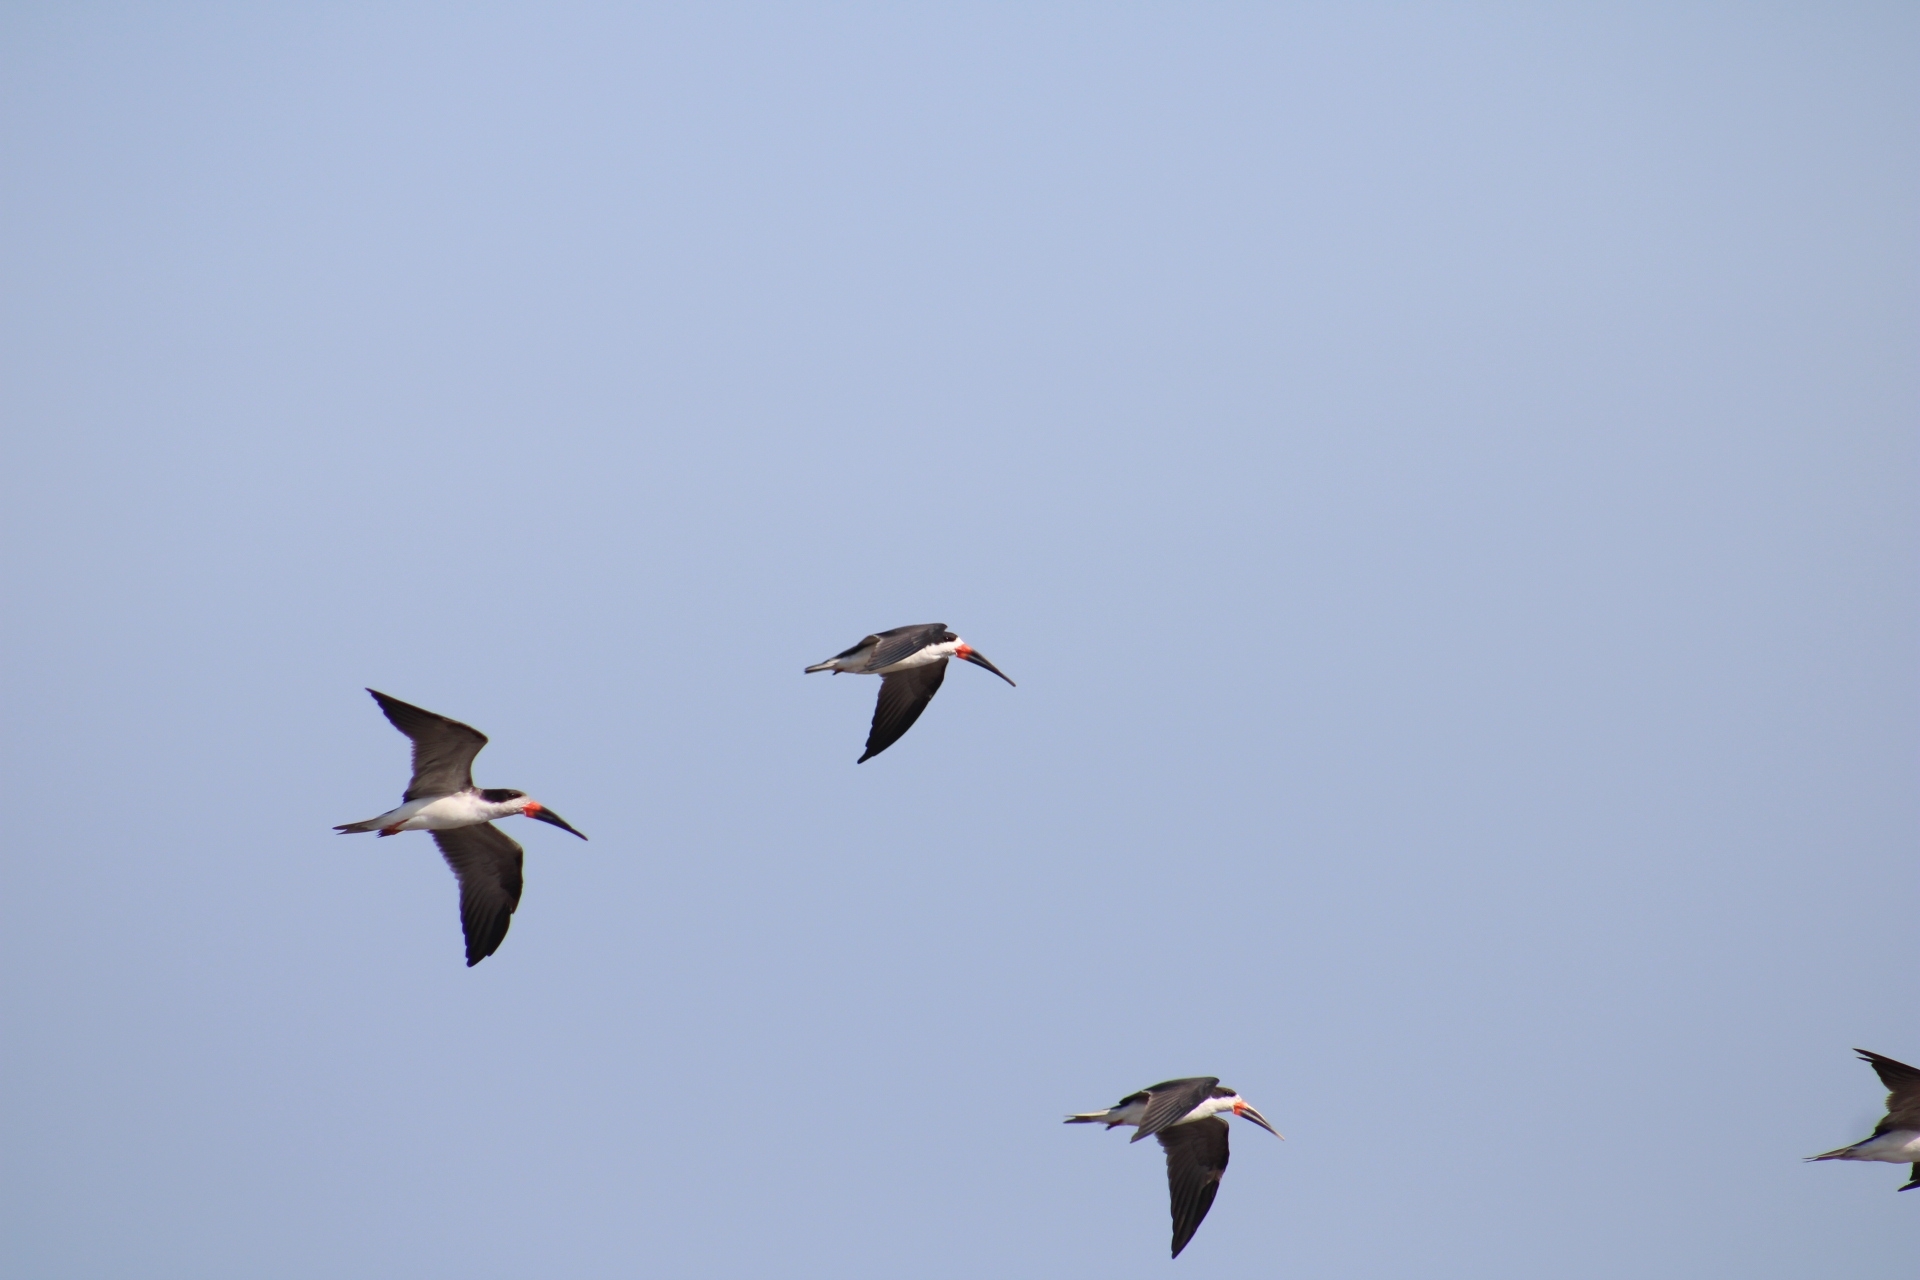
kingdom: Animalia
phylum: Chordata
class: Aves
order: Charadriiformes
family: Laridae
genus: Rynchops
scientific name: Rynchops niger
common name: Black skimmer
